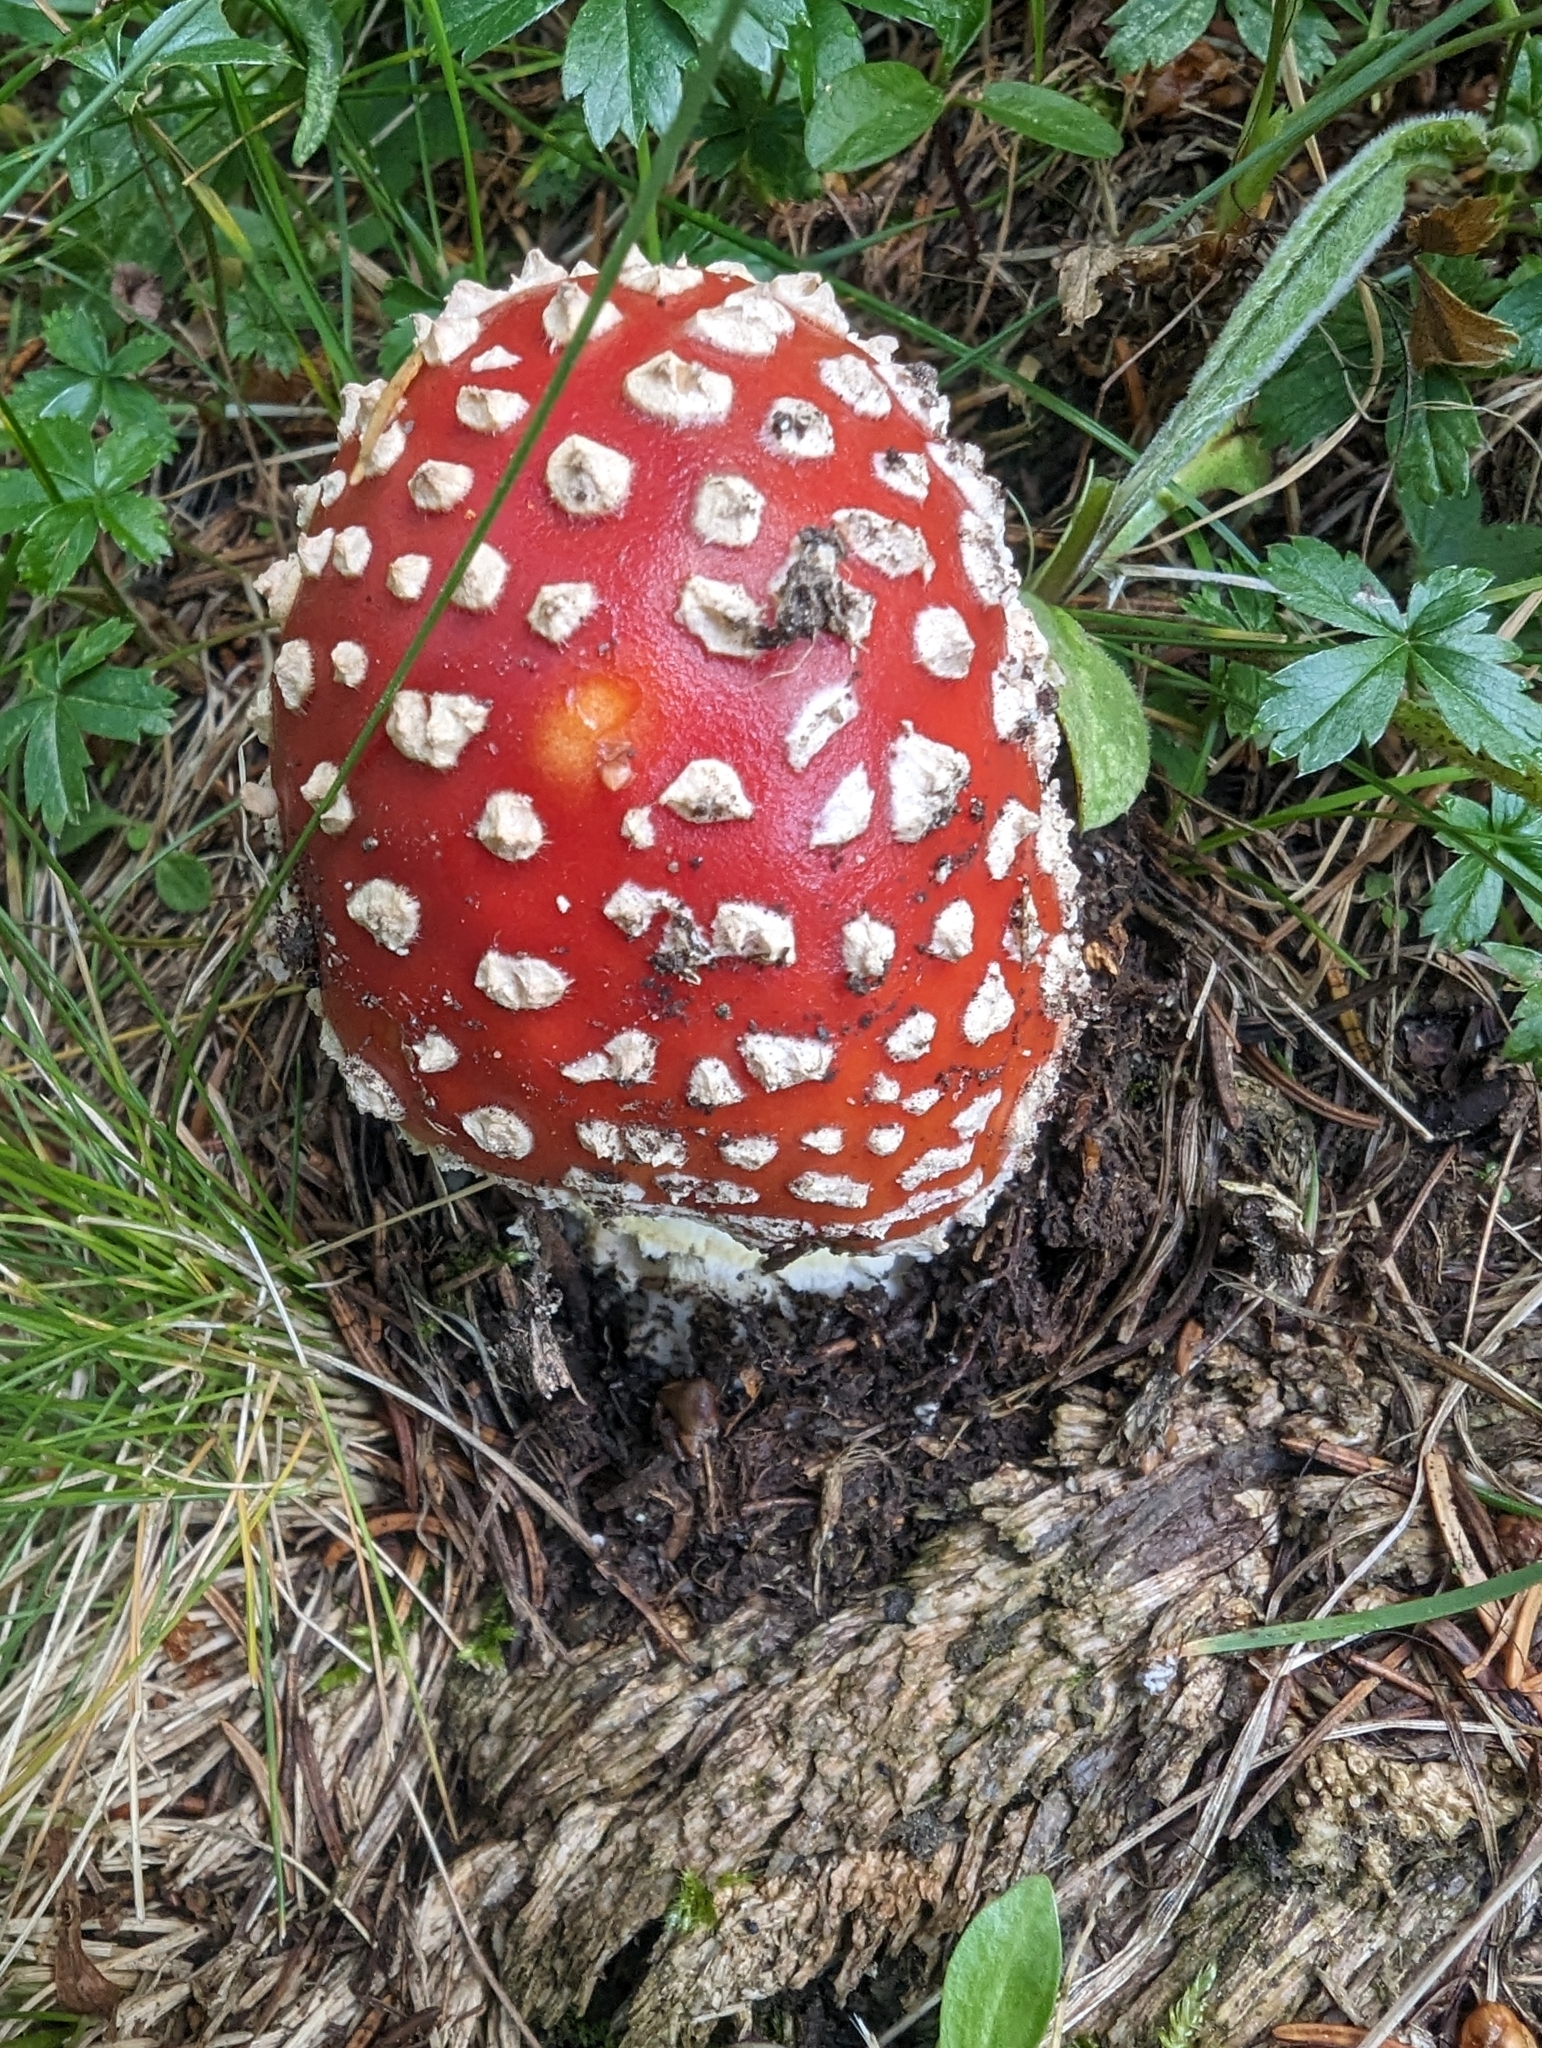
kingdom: Fungi
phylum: Basidiomycota
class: Agaricomycetes
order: Agaricales
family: Amanitaceae
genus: Amanita
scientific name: Amanita muscaria
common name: Fly agaric
